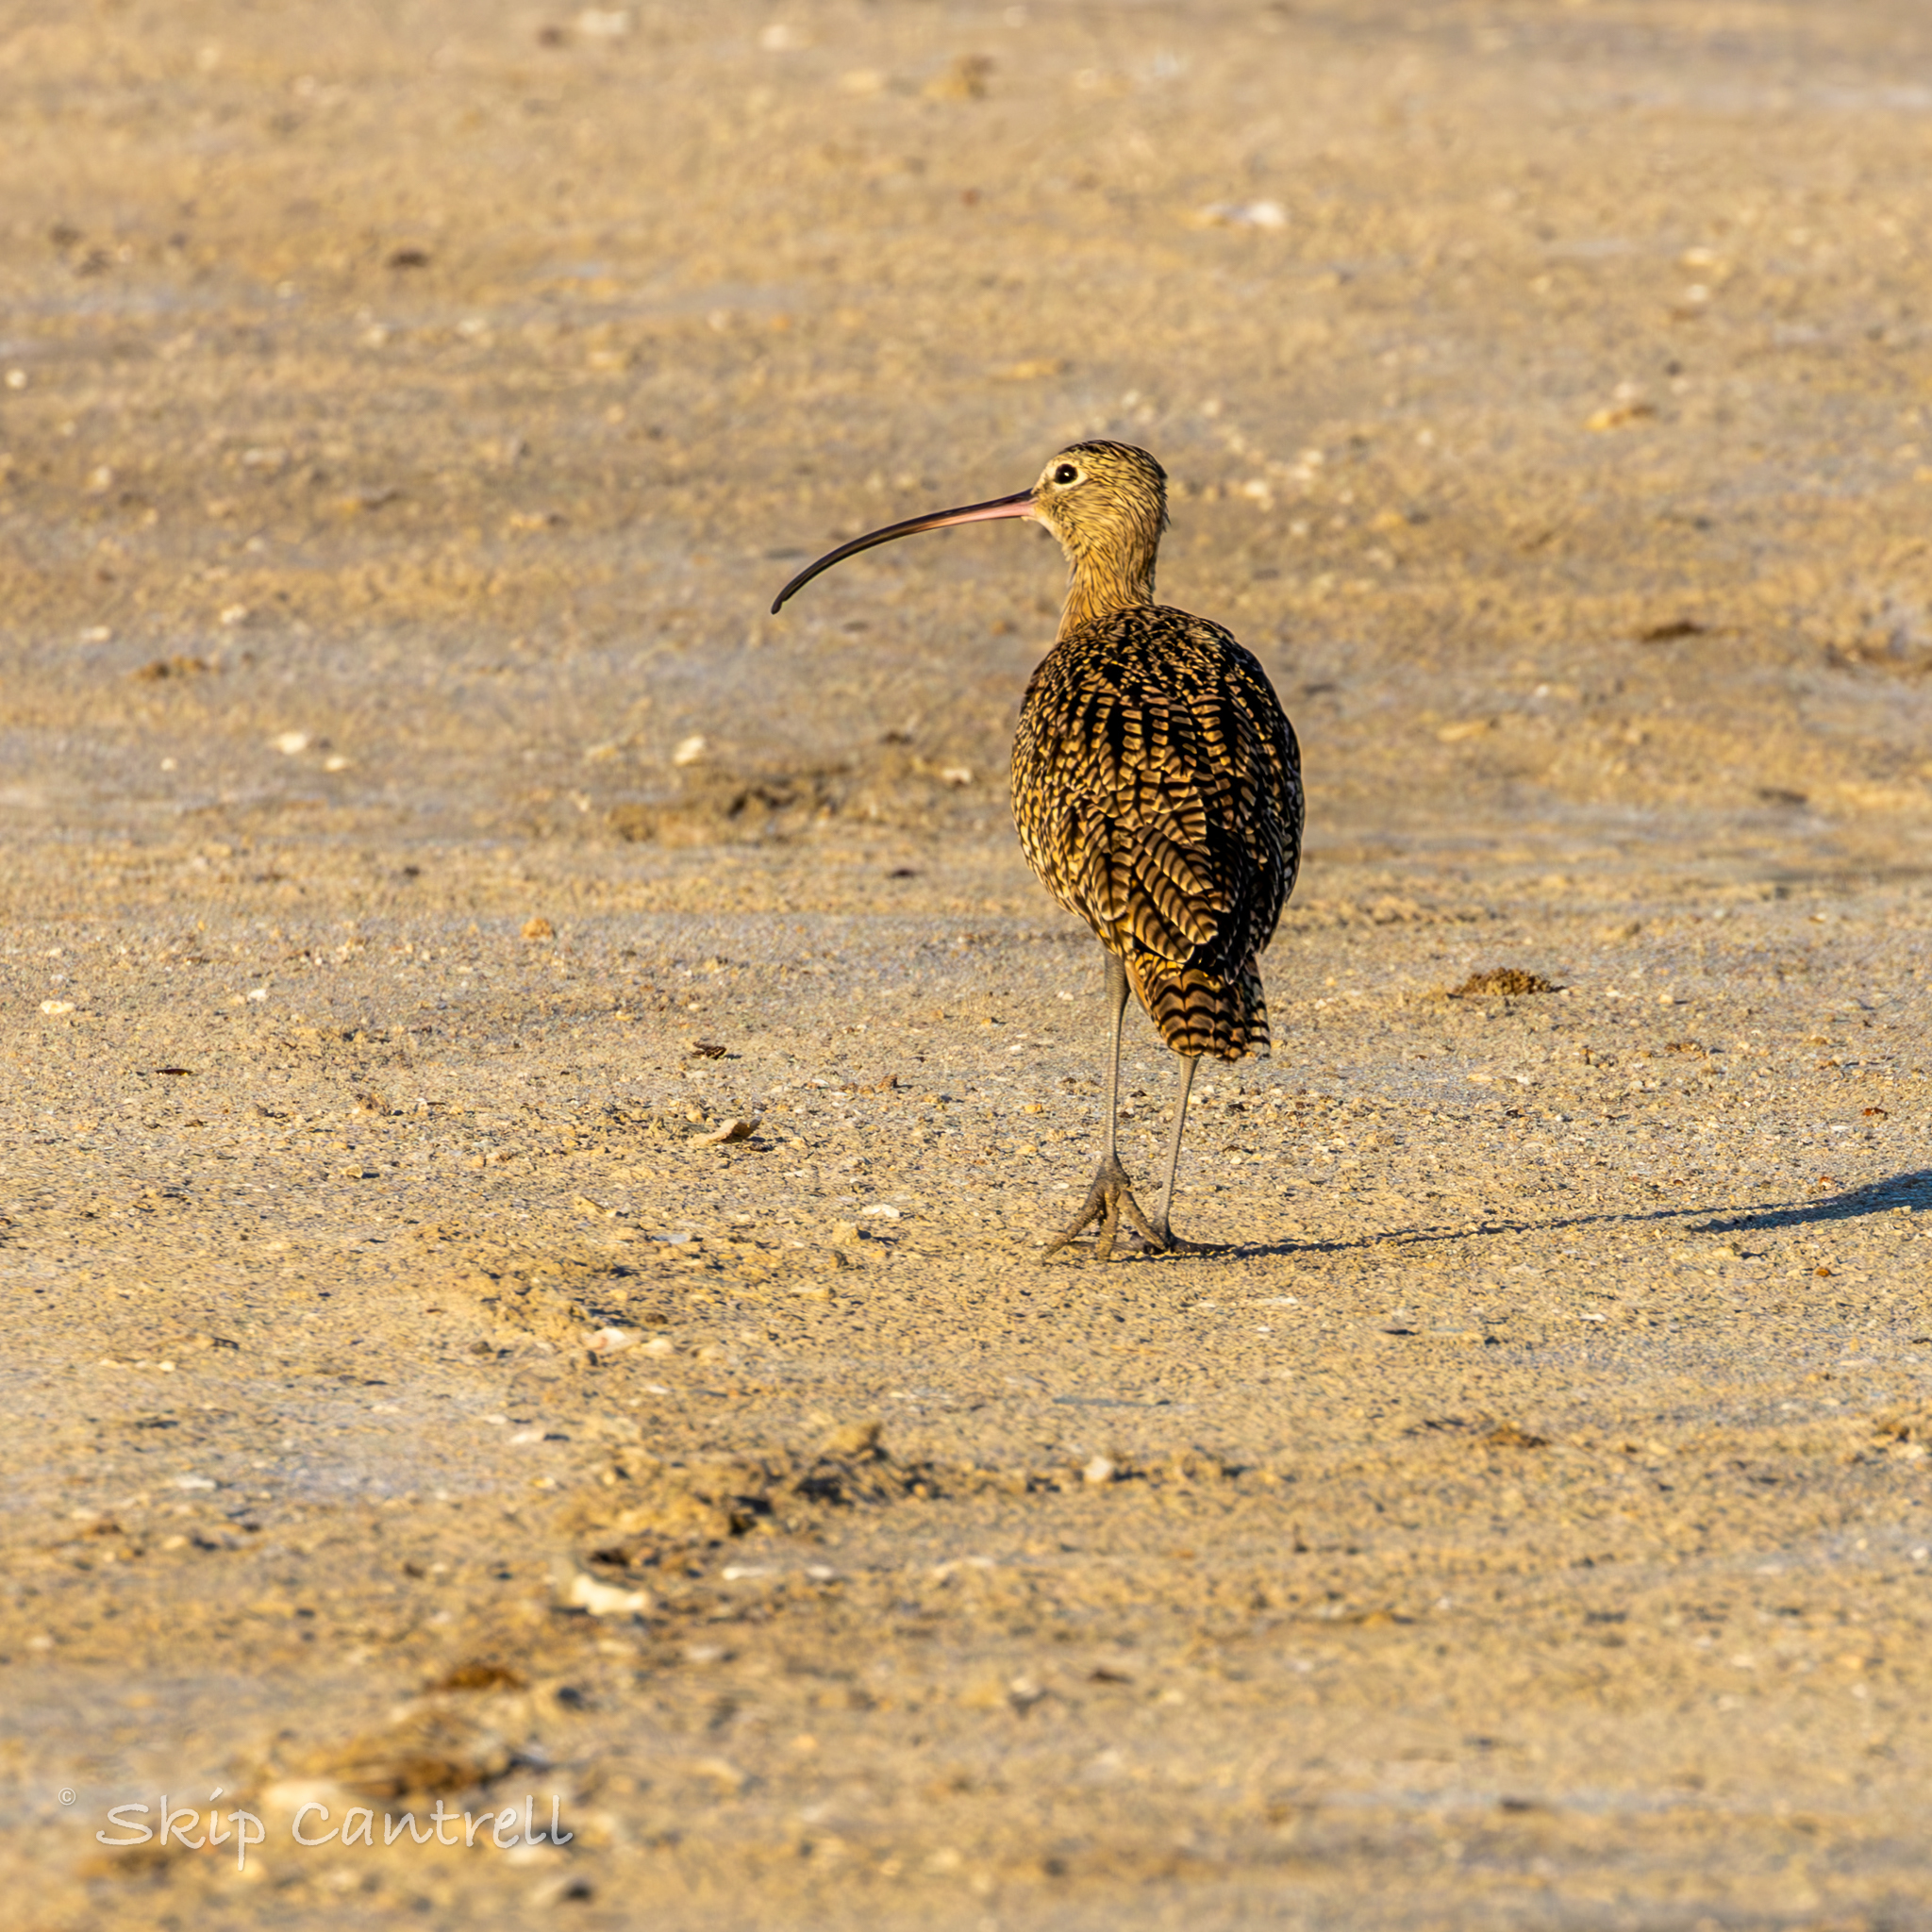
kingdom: Animalia
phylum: Chordata
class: Aves
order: Charadriiformes
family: Scolopacidae
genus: Numenius
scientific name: Numenius americanus
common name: Long-billed curlew
